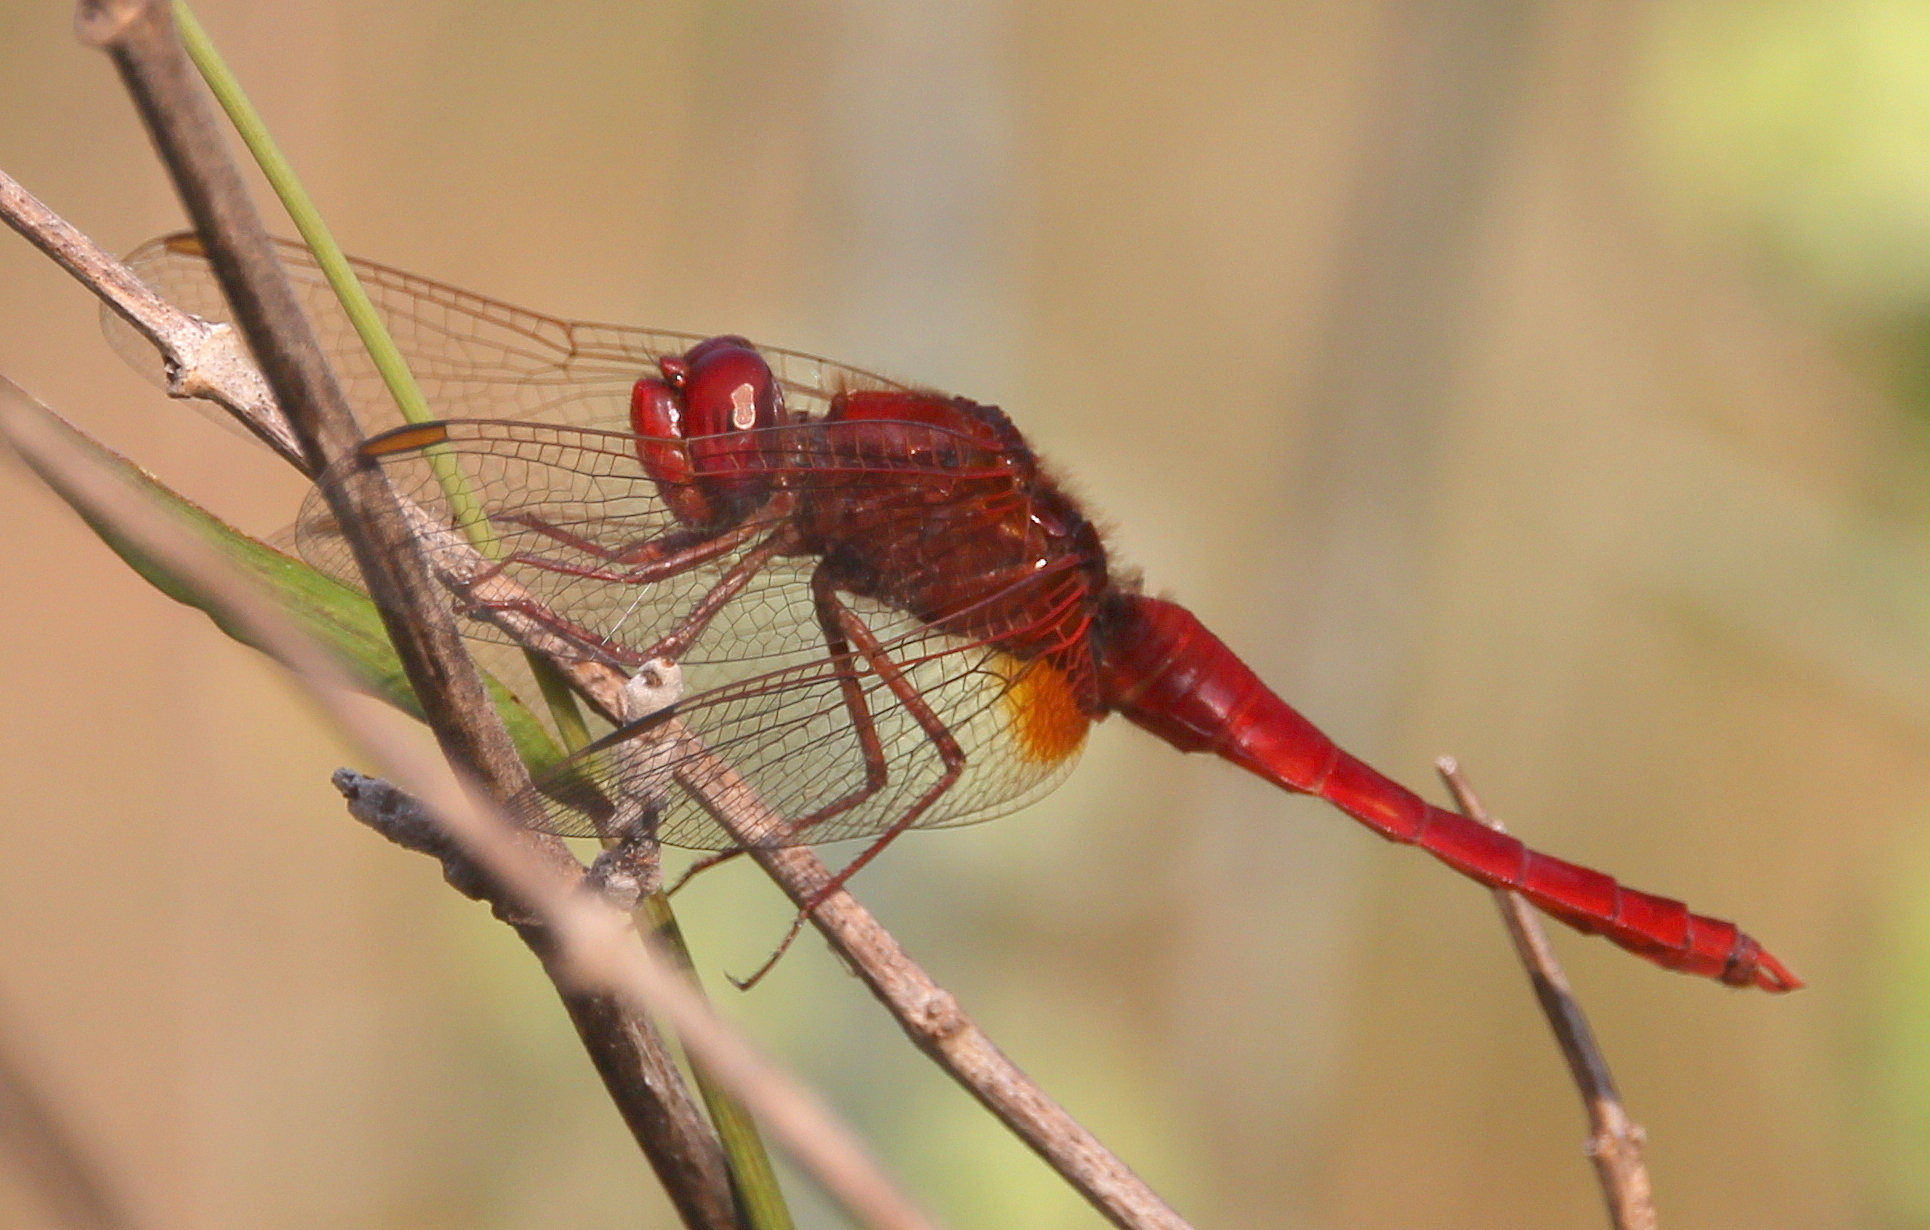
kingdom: Animalia
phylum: Arthropoda
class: Insecta
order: Odonata
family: Libellulidae
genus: Crocothemis
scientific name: Crocothemis erythraea
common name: Scarlet dragonfly
